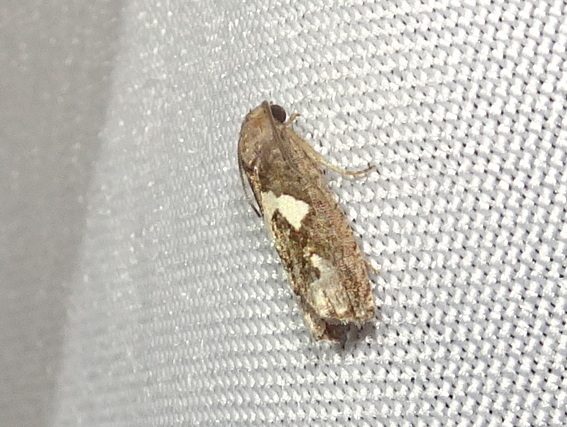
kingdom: Animalia
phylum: Arthropoda
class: Insecta
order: Lepidoptera
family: Tortricidae
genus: Epiblema
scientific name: Epiblema otiosana
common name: Bidens borer moth
